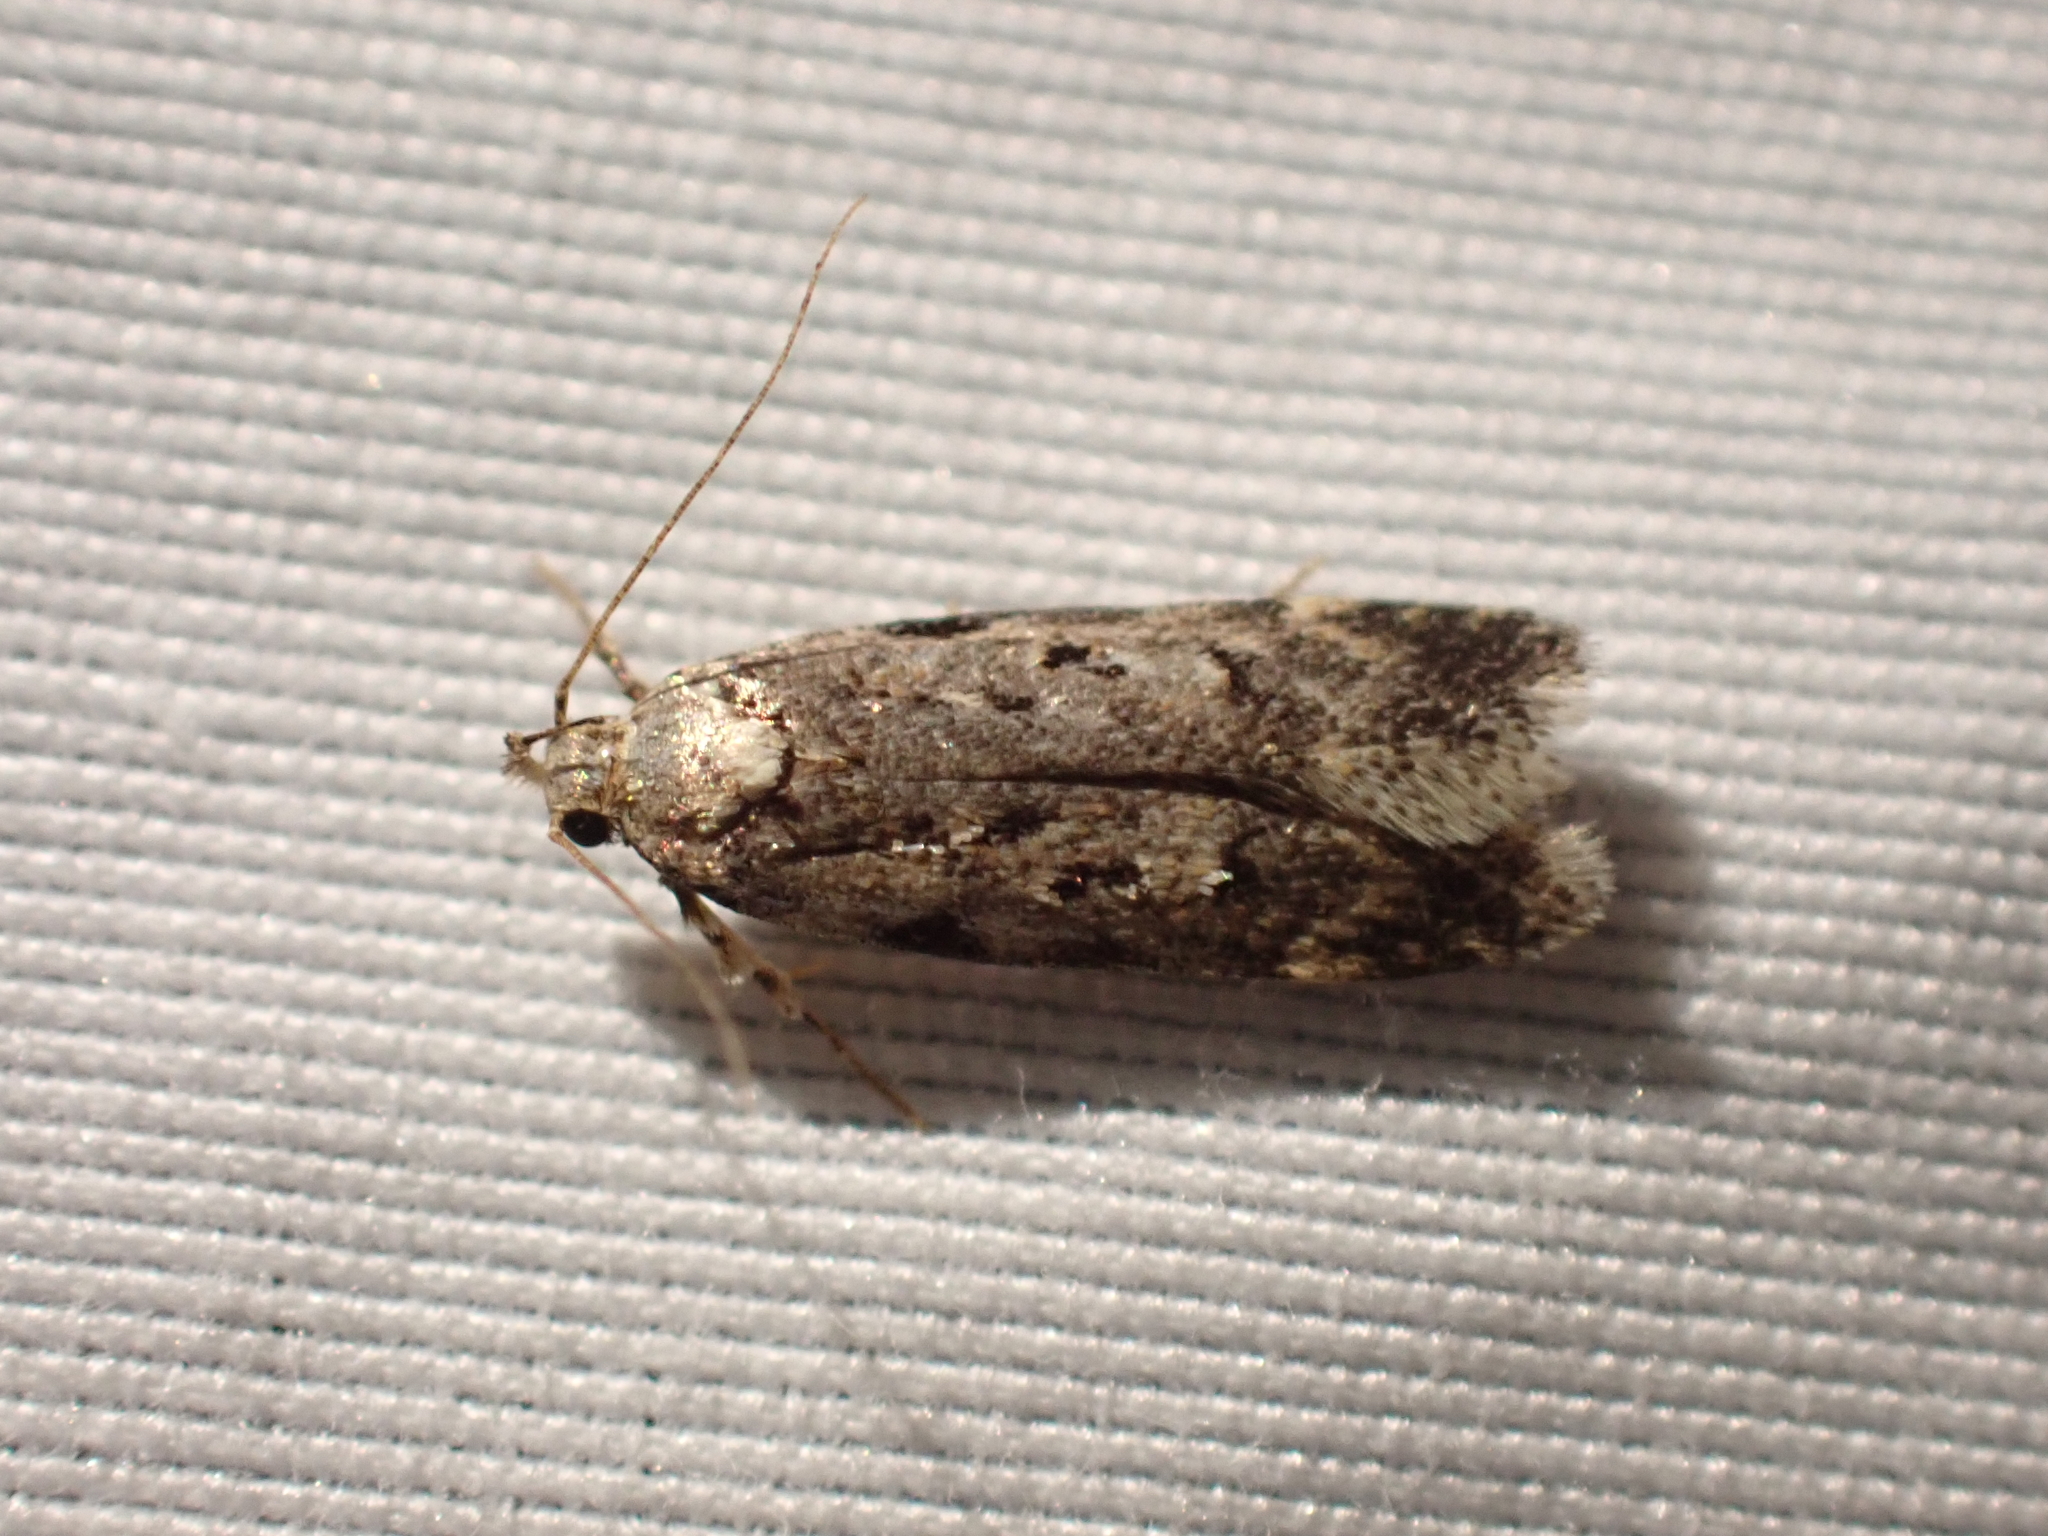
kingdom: Animalia
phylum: Arthropoda
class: Insecta
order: Lepidoptera
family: Gelechiidae
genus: Chionodes
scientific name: Chionodes petalumensis
